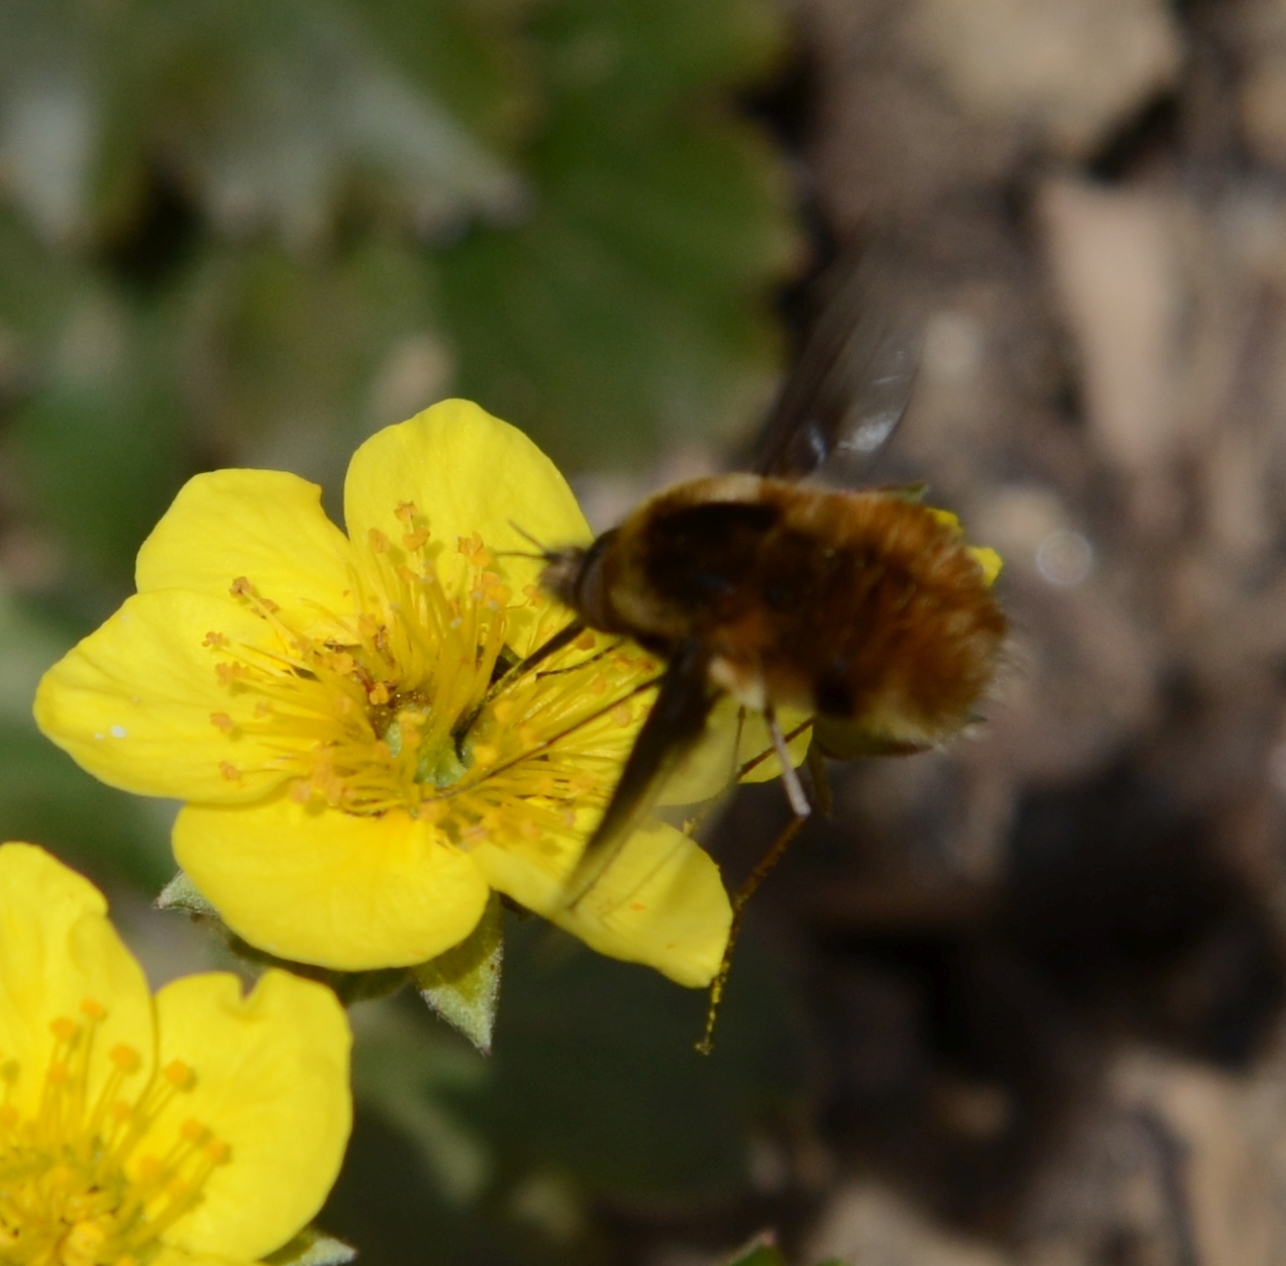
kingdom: Animalia
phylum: Arthropoda
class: Insecta
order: Diptera
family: Bombyliidae
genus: Bombylius
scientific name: Bombylius major
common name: Bee fly
